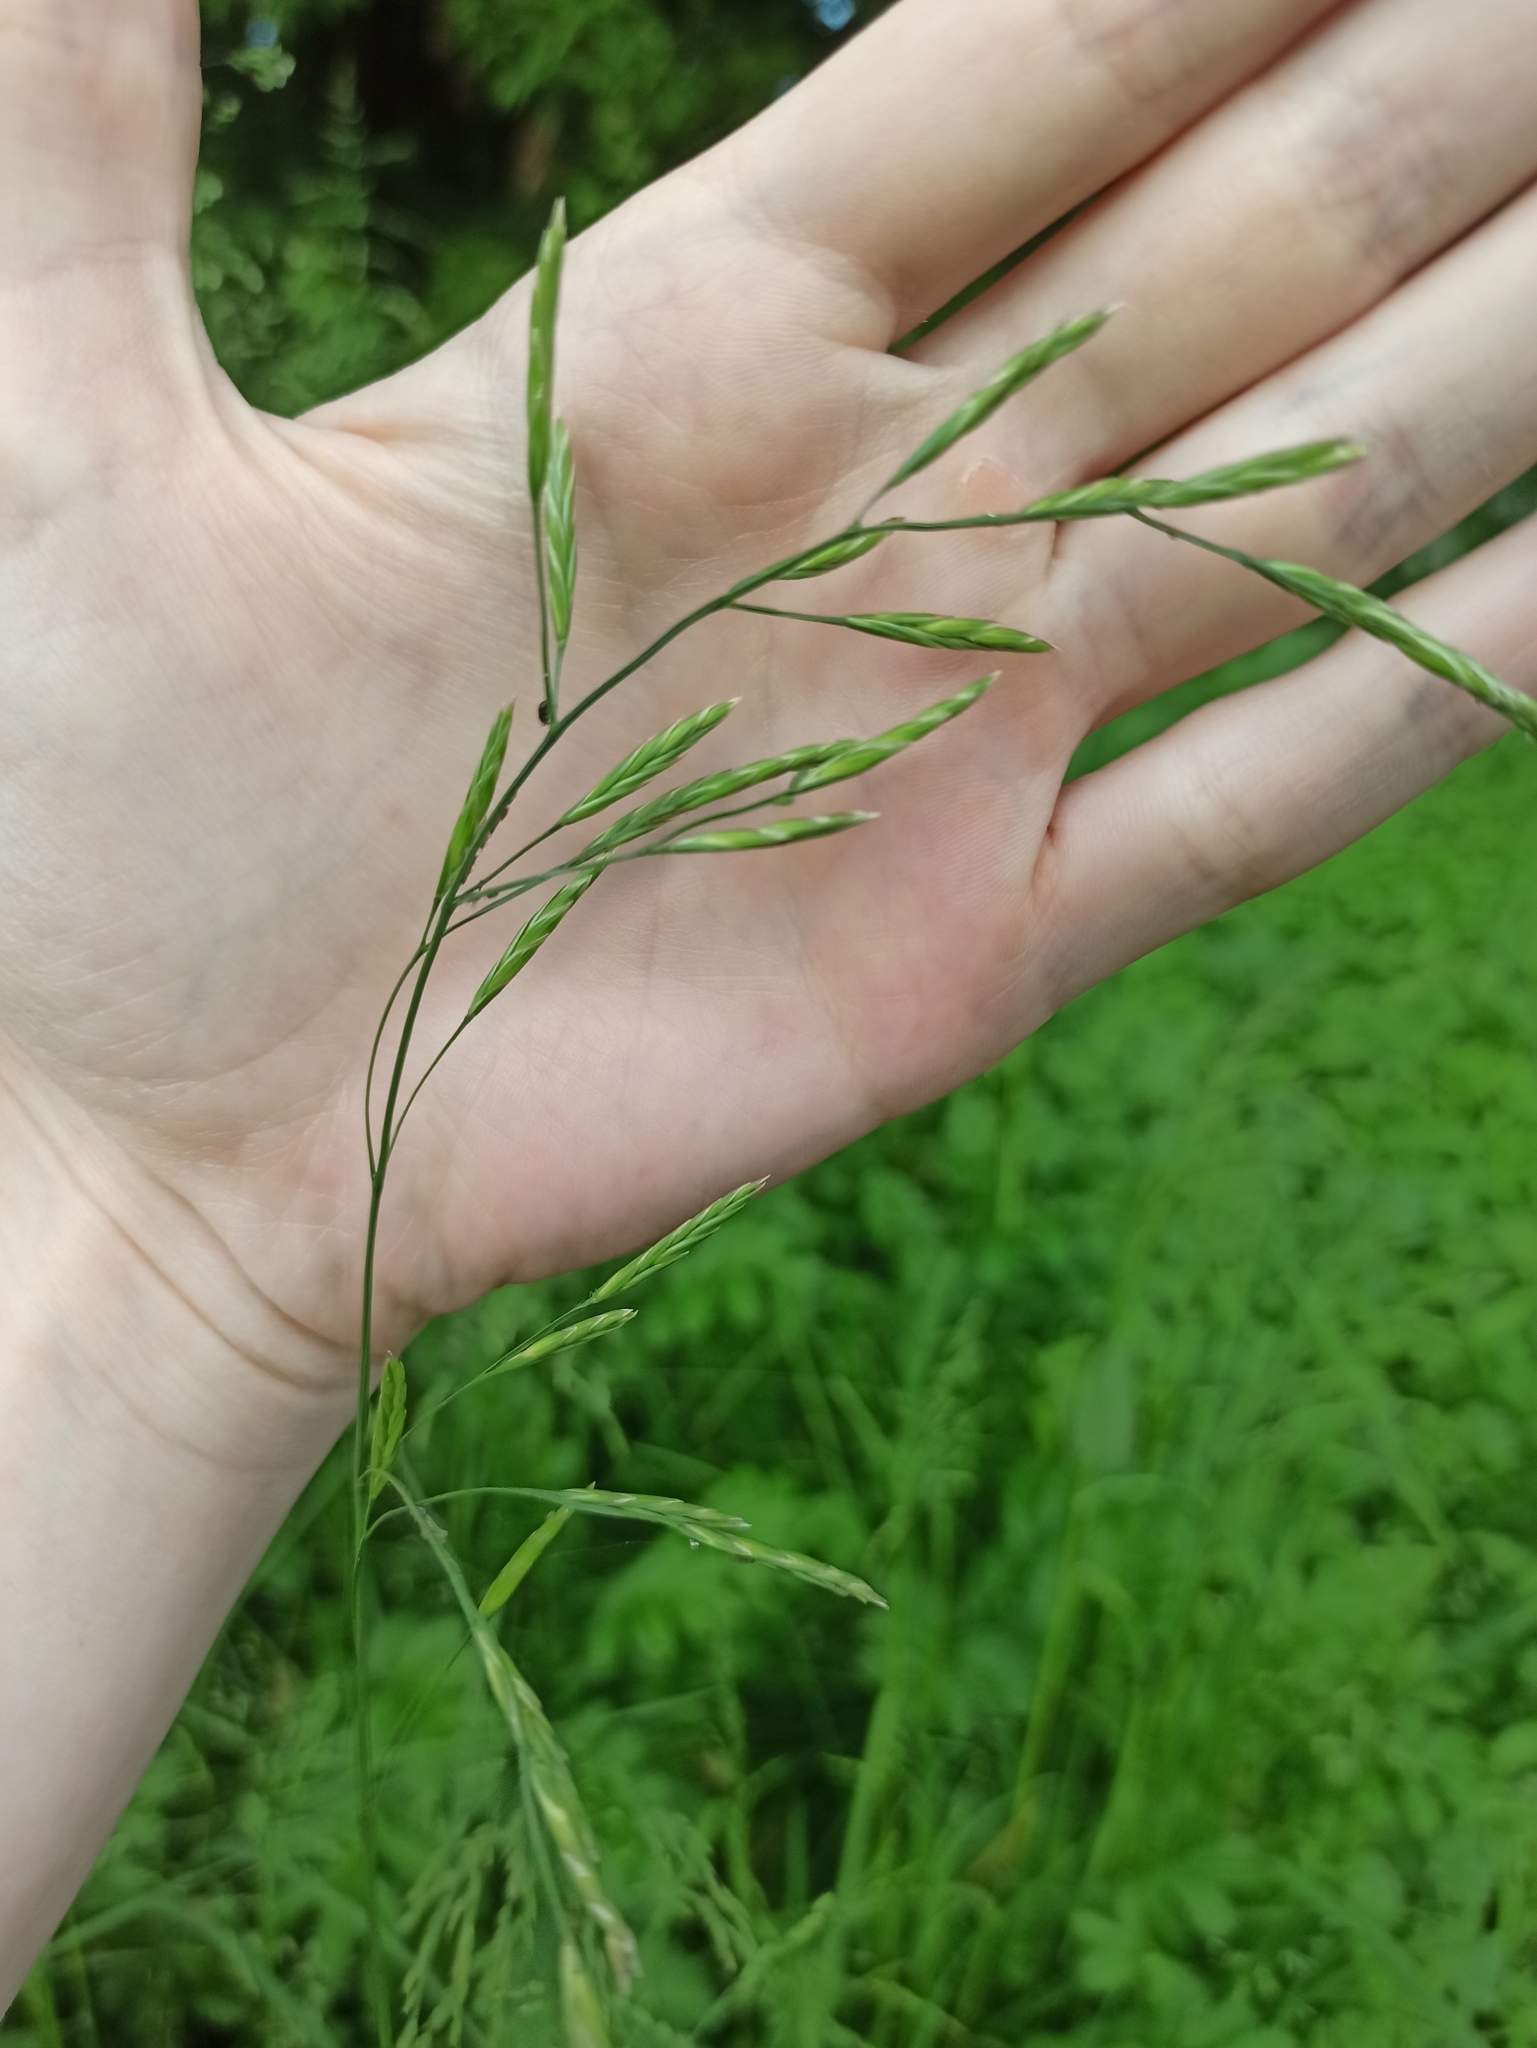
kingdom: Plantae
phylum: Tracheophyta
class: Liliopsida
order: Poales
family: Poaceae
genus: Lolium
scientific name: Lolium pratense
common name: Dover grass
